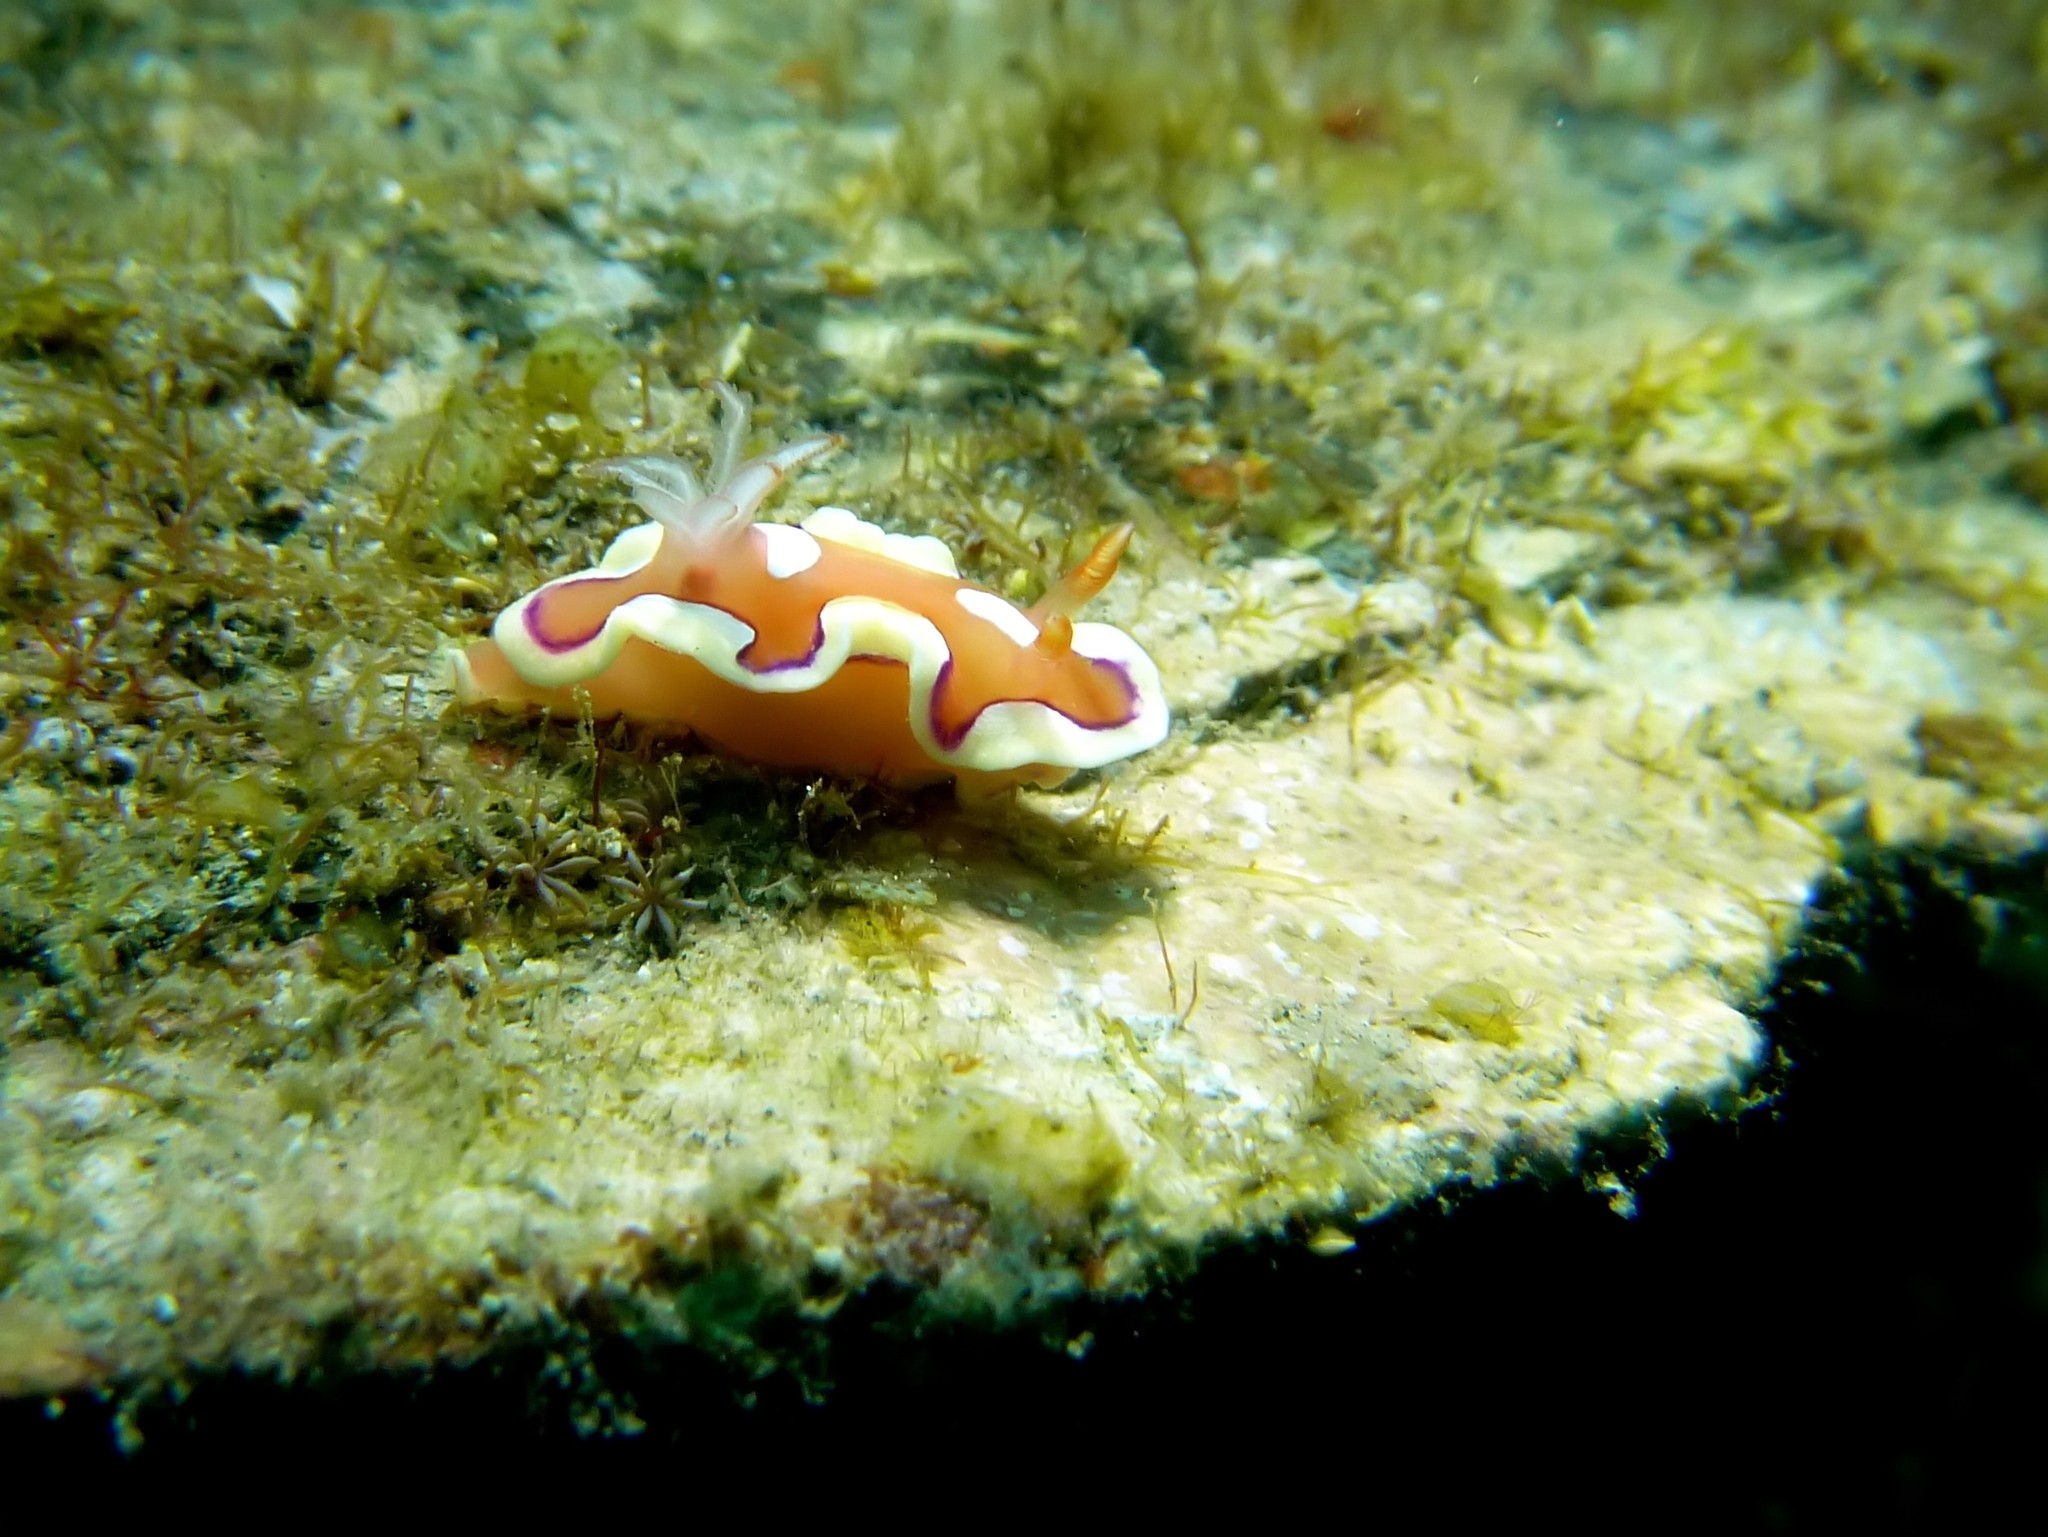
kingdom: Animalia
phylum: Mollusca
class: Gastropoda
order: Nudibranchia
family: Chromodorididae
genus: Mexichromis
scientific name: Mexichromis pusilla
